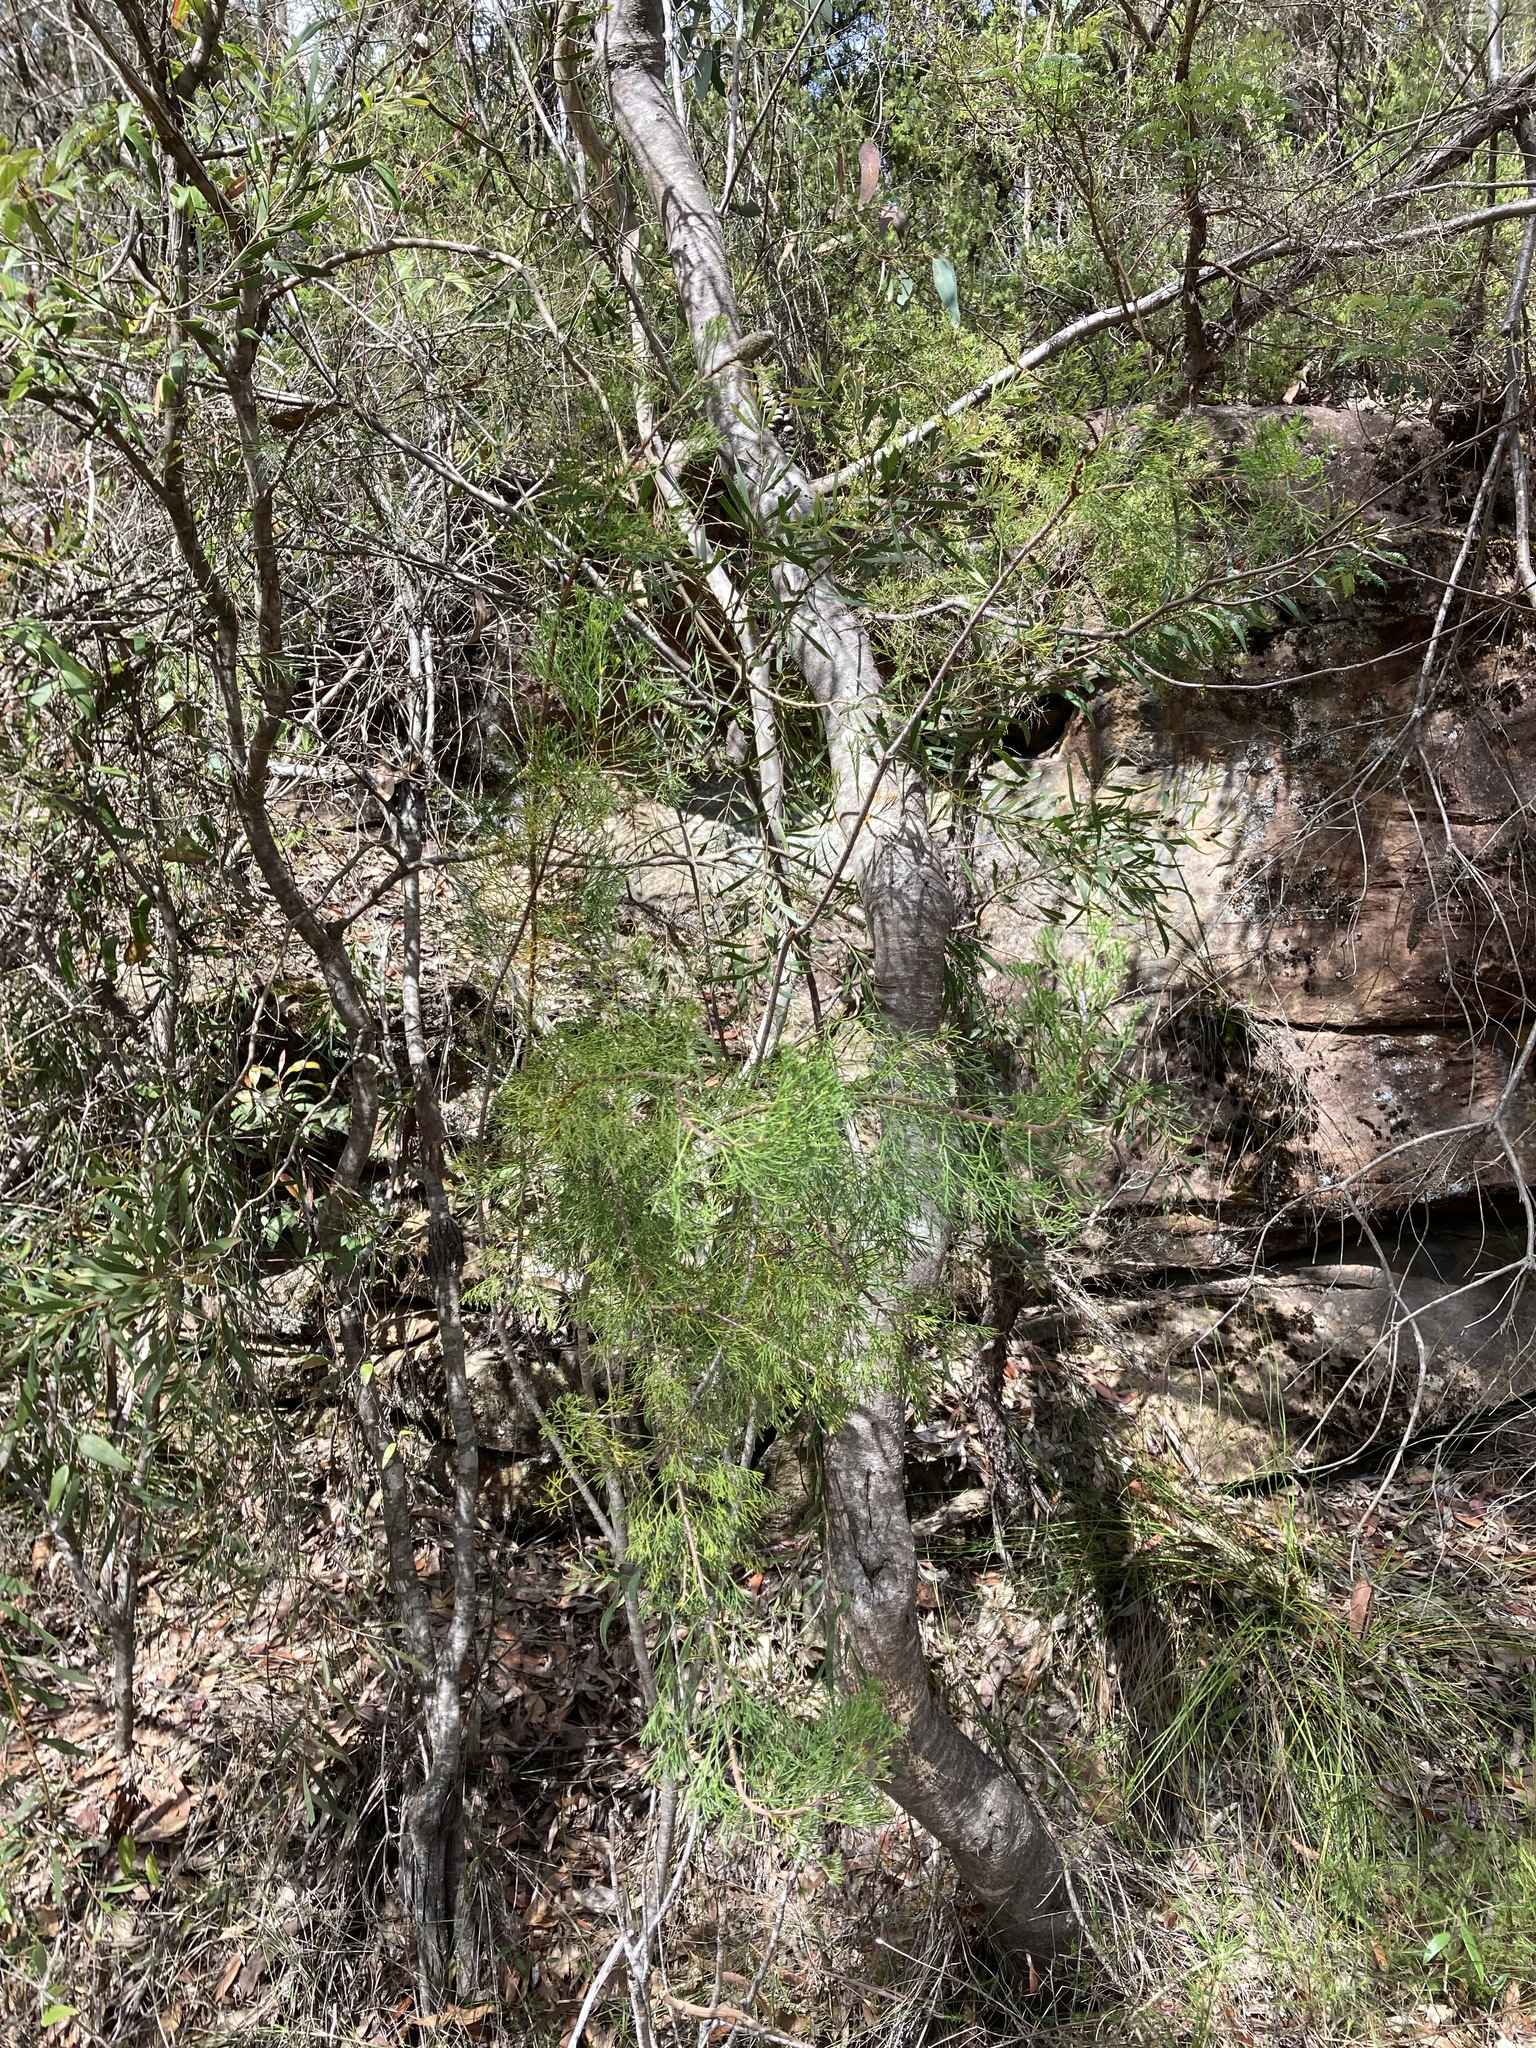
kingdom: Plantae
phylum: Tracheophyta
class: Magnoliopsida
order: Proteales
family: Proteaceae
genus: Petrophile
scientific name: Petrophile pulchella
